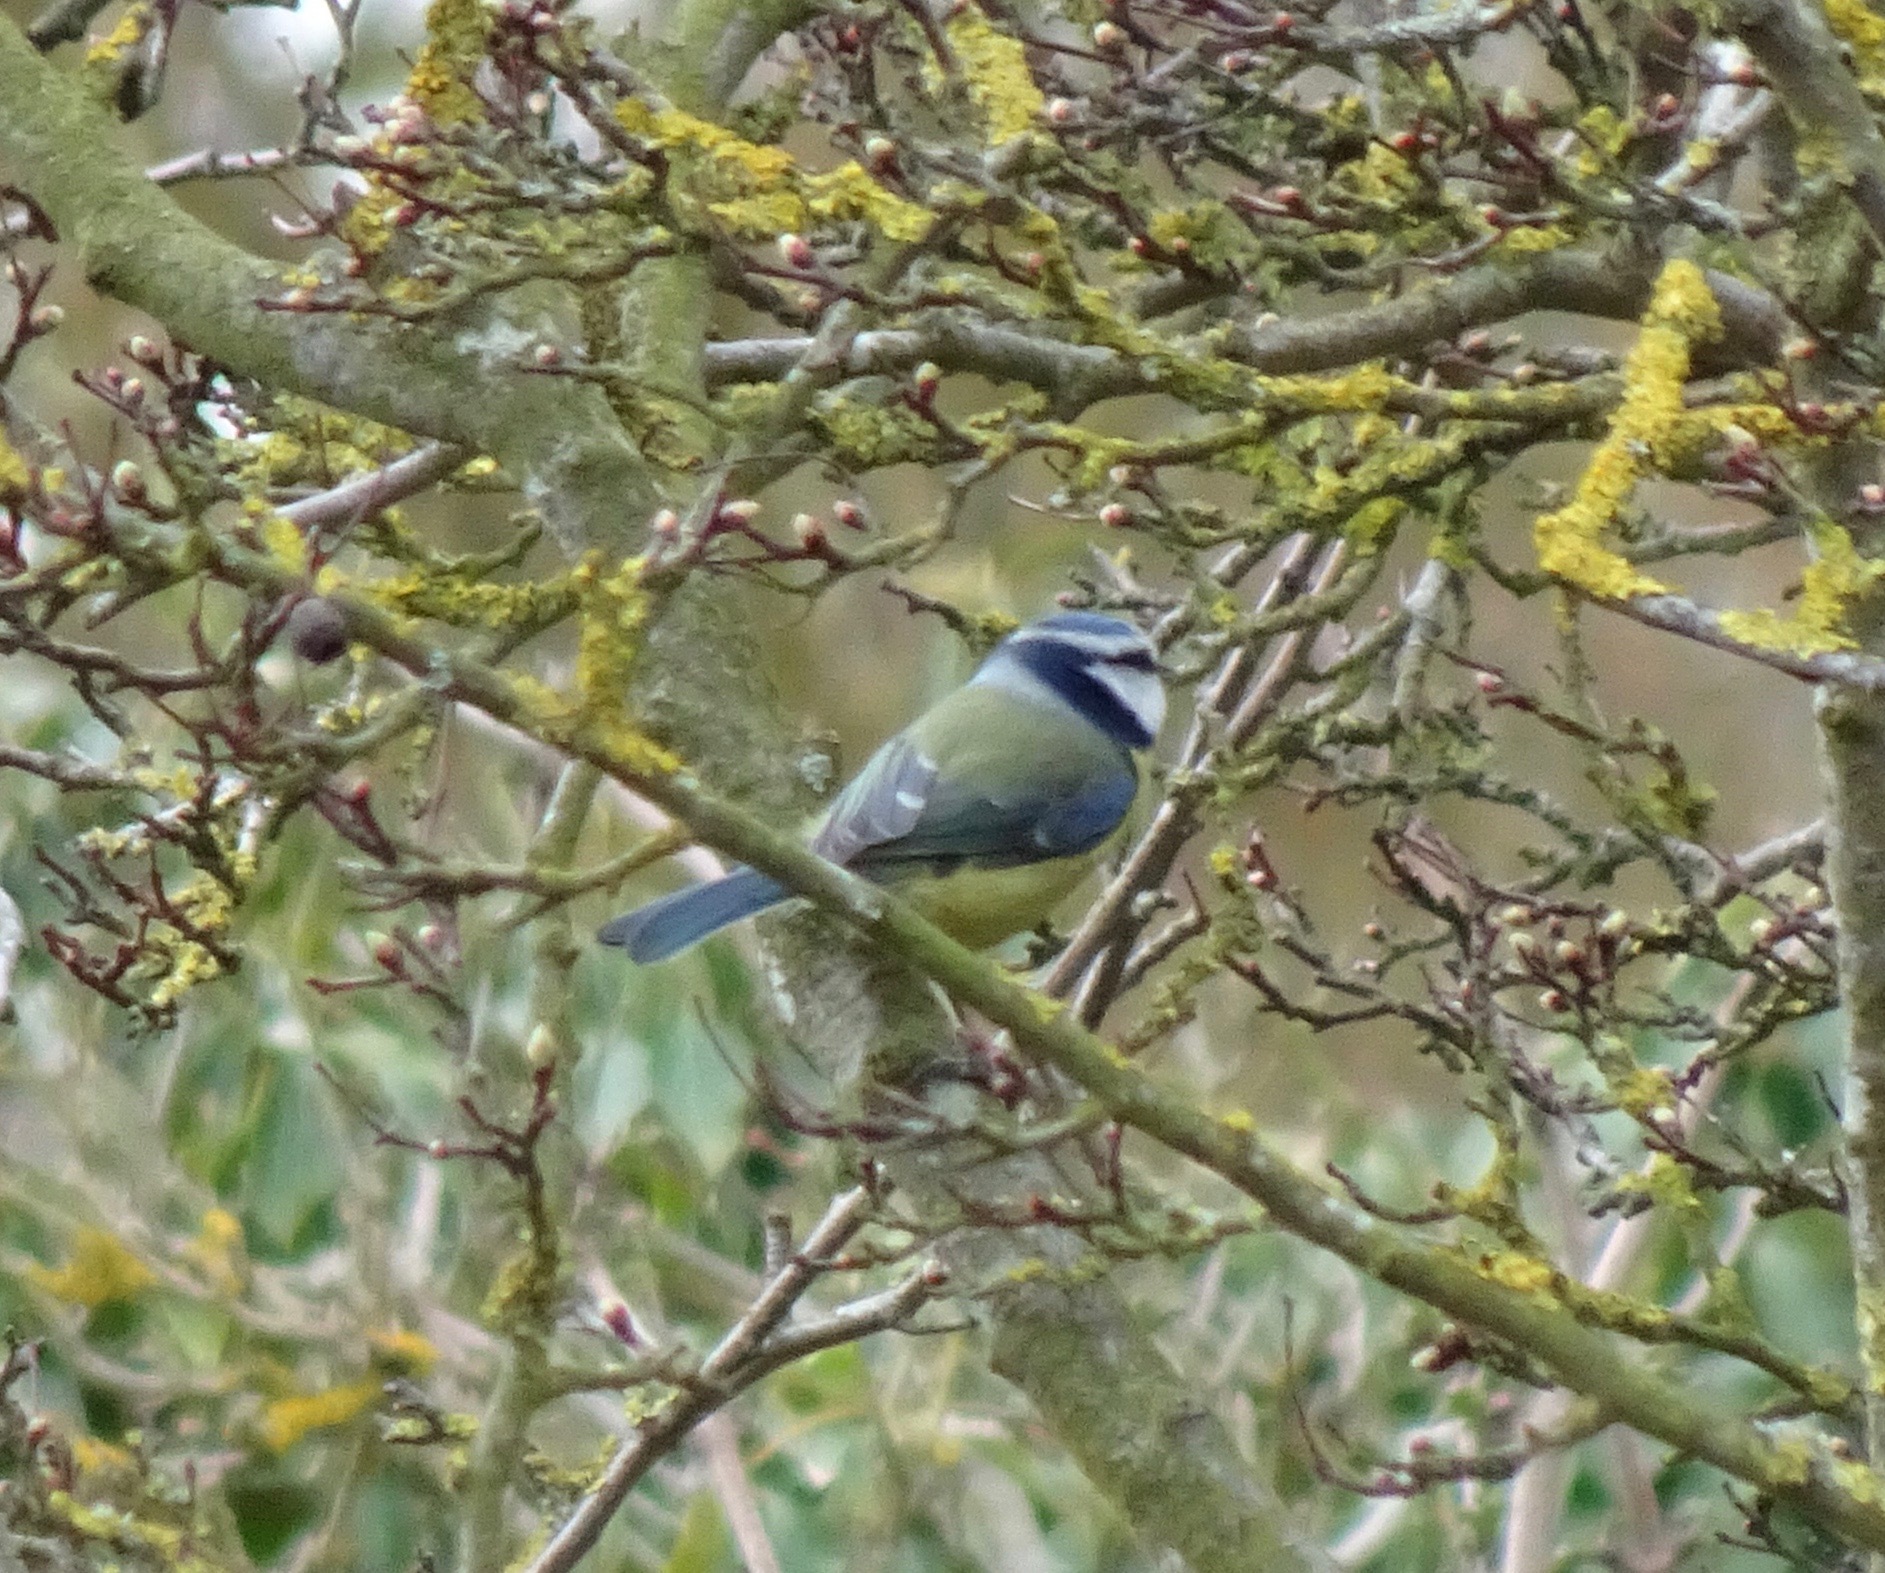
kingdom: Animalia
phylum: Chordata
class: Aves
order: Passeriformes
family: Paridae
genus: Cyanistes
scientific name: Cyanistes caeruleus
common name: Eurasian blue tit
